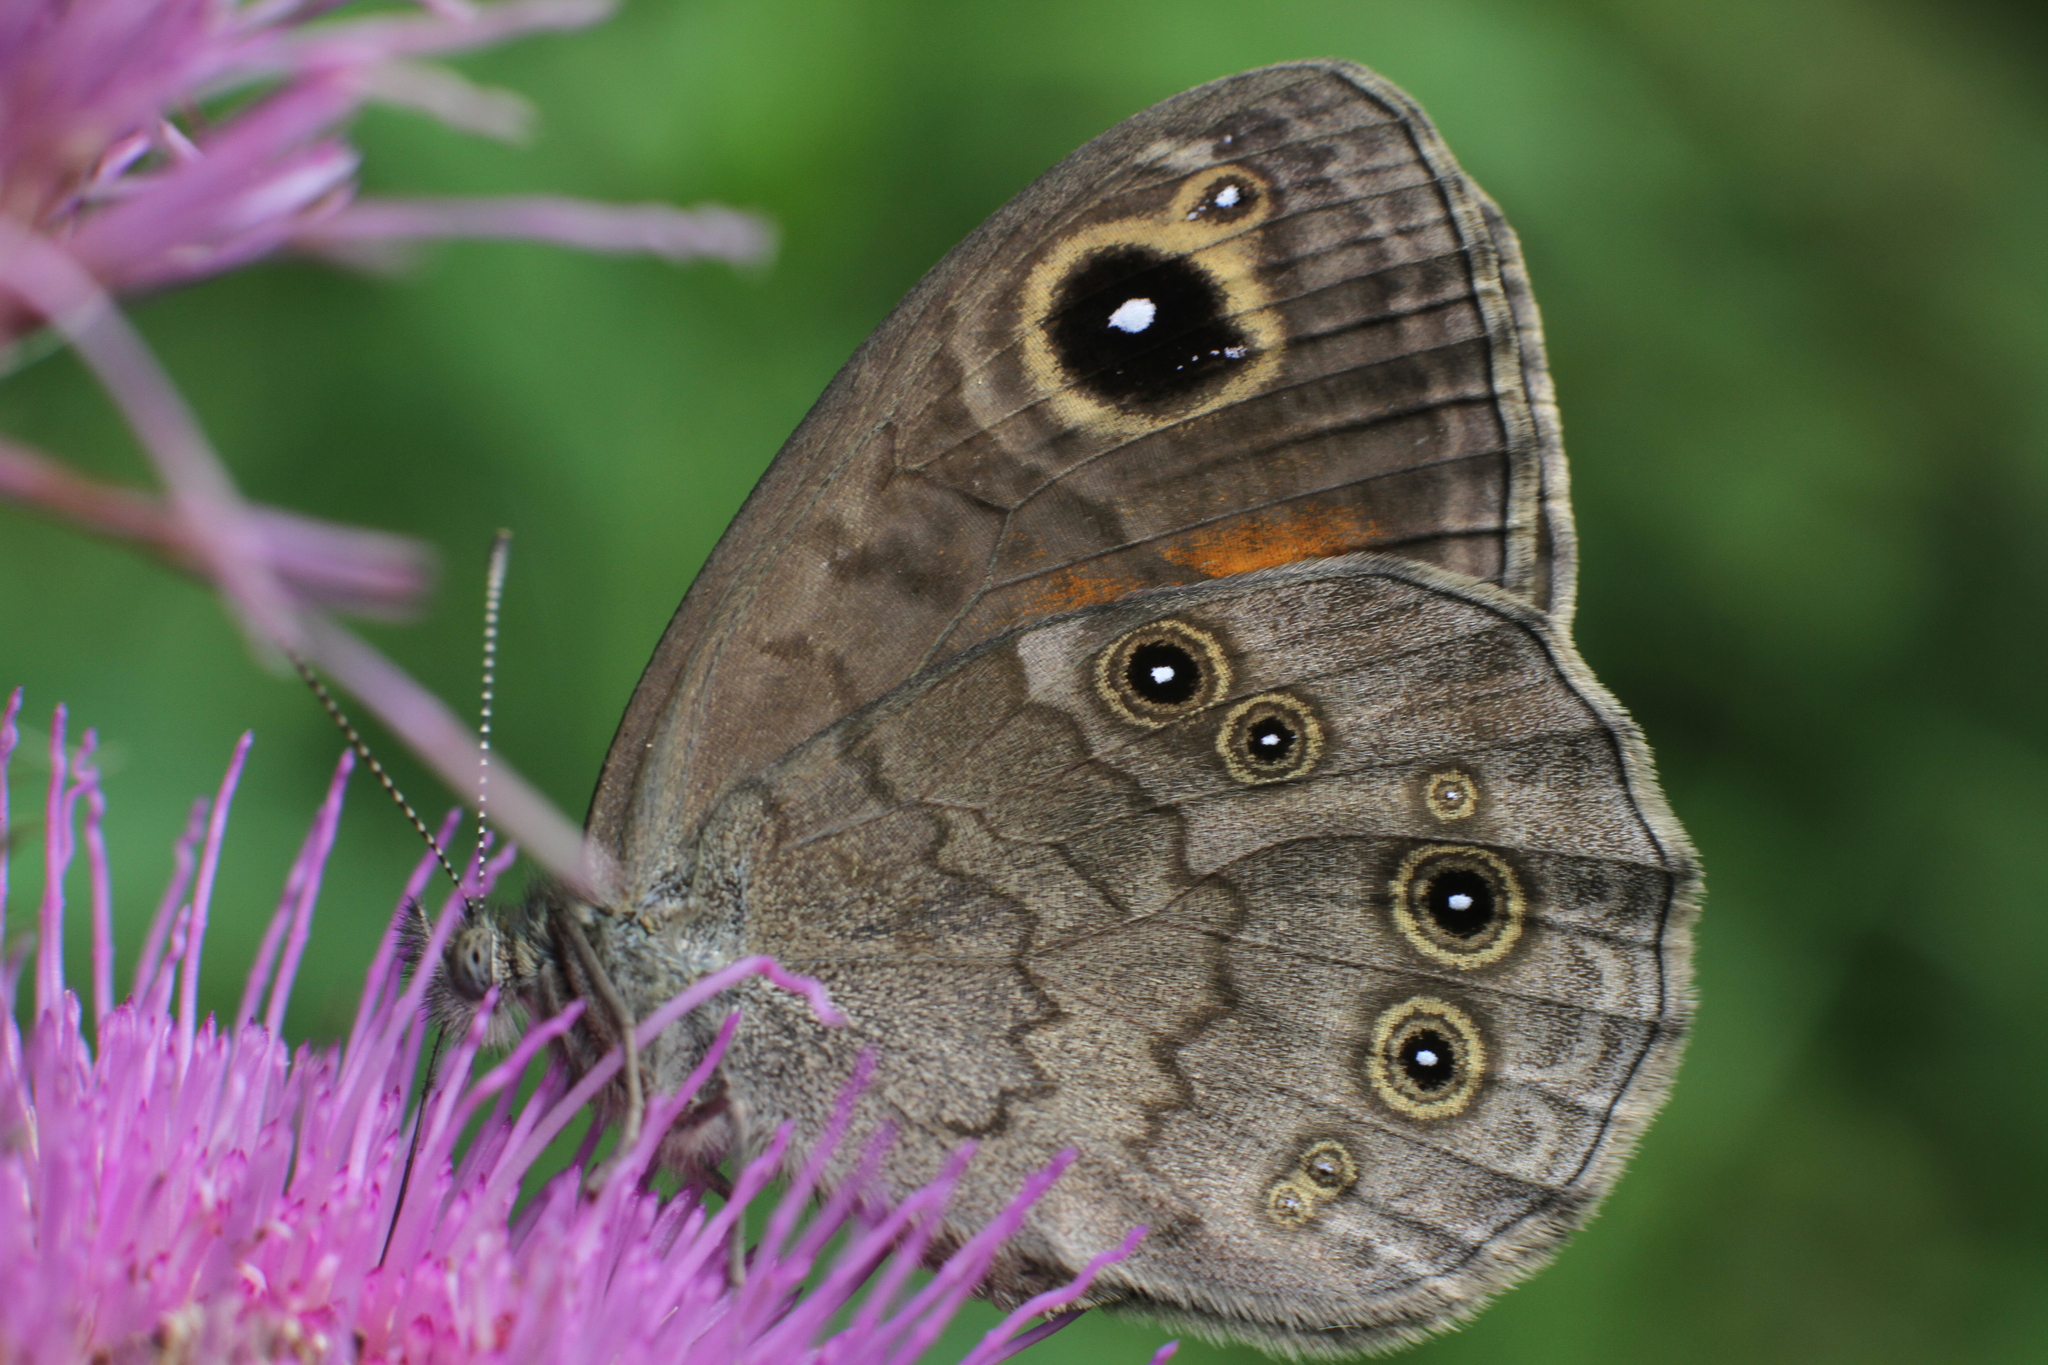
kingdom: Animalia
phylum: Arthropoda
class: Insecta
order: Lepidoptera
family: Nymphalidae
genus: Pararge
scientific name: Pararge Lasiommata maera
